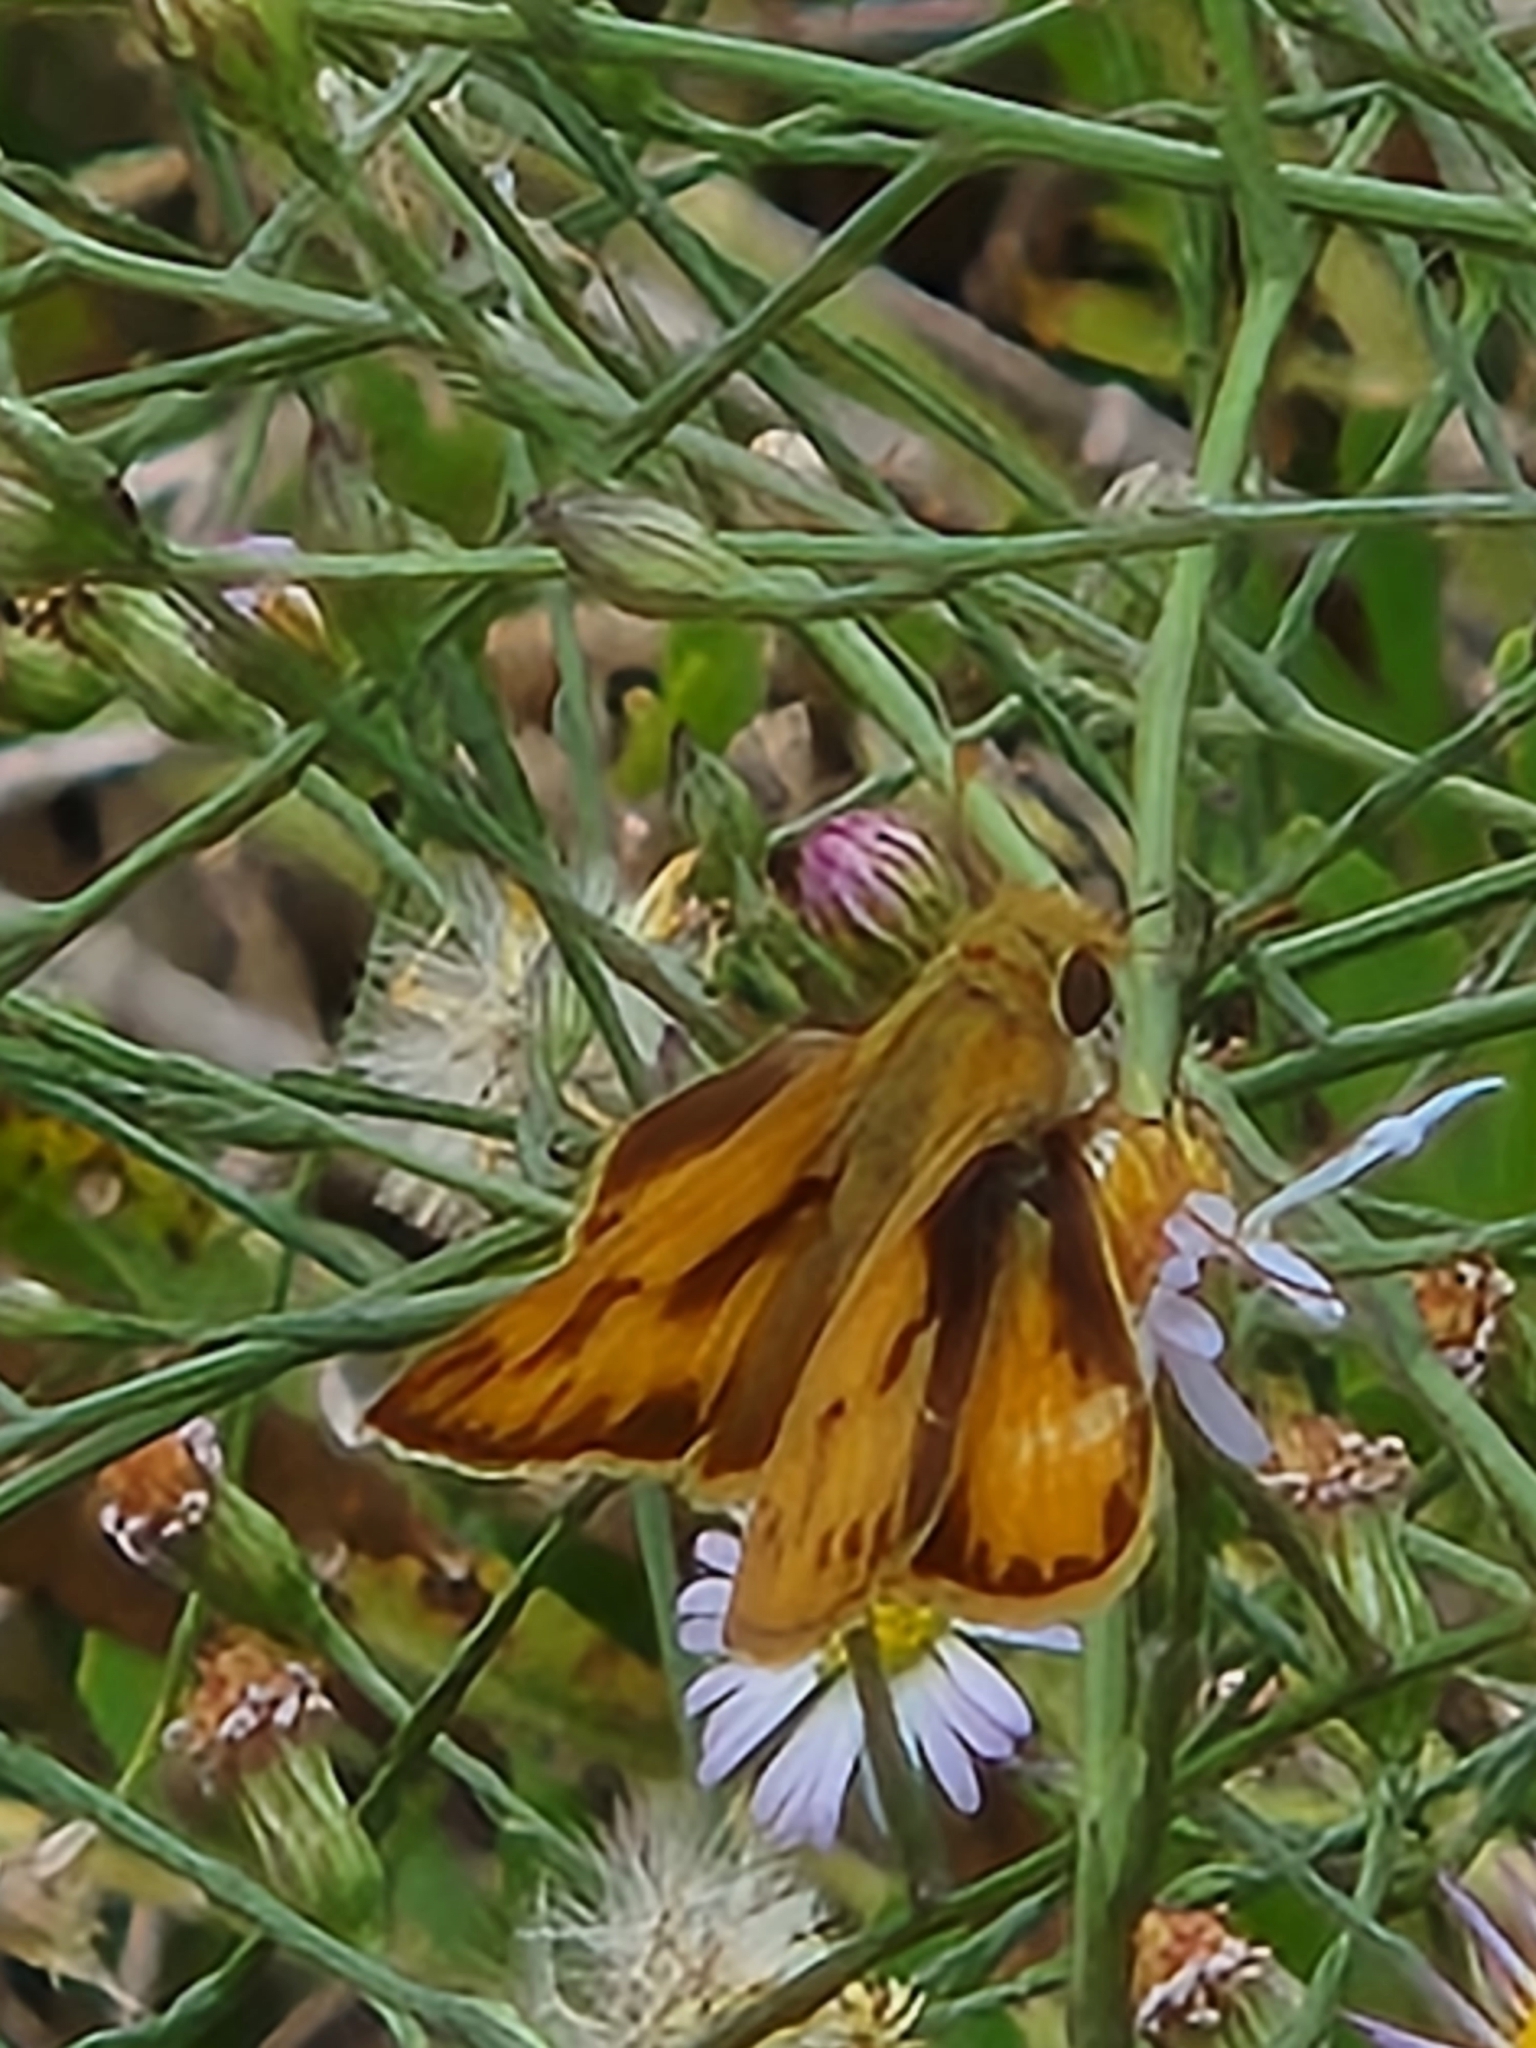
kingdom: Animalia
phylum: Arthropoda
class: Insecta
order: Lepidoptera
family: Hesperiidae
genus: Hylephila
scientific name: Hylephila phyleus
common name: Fiery skipper
